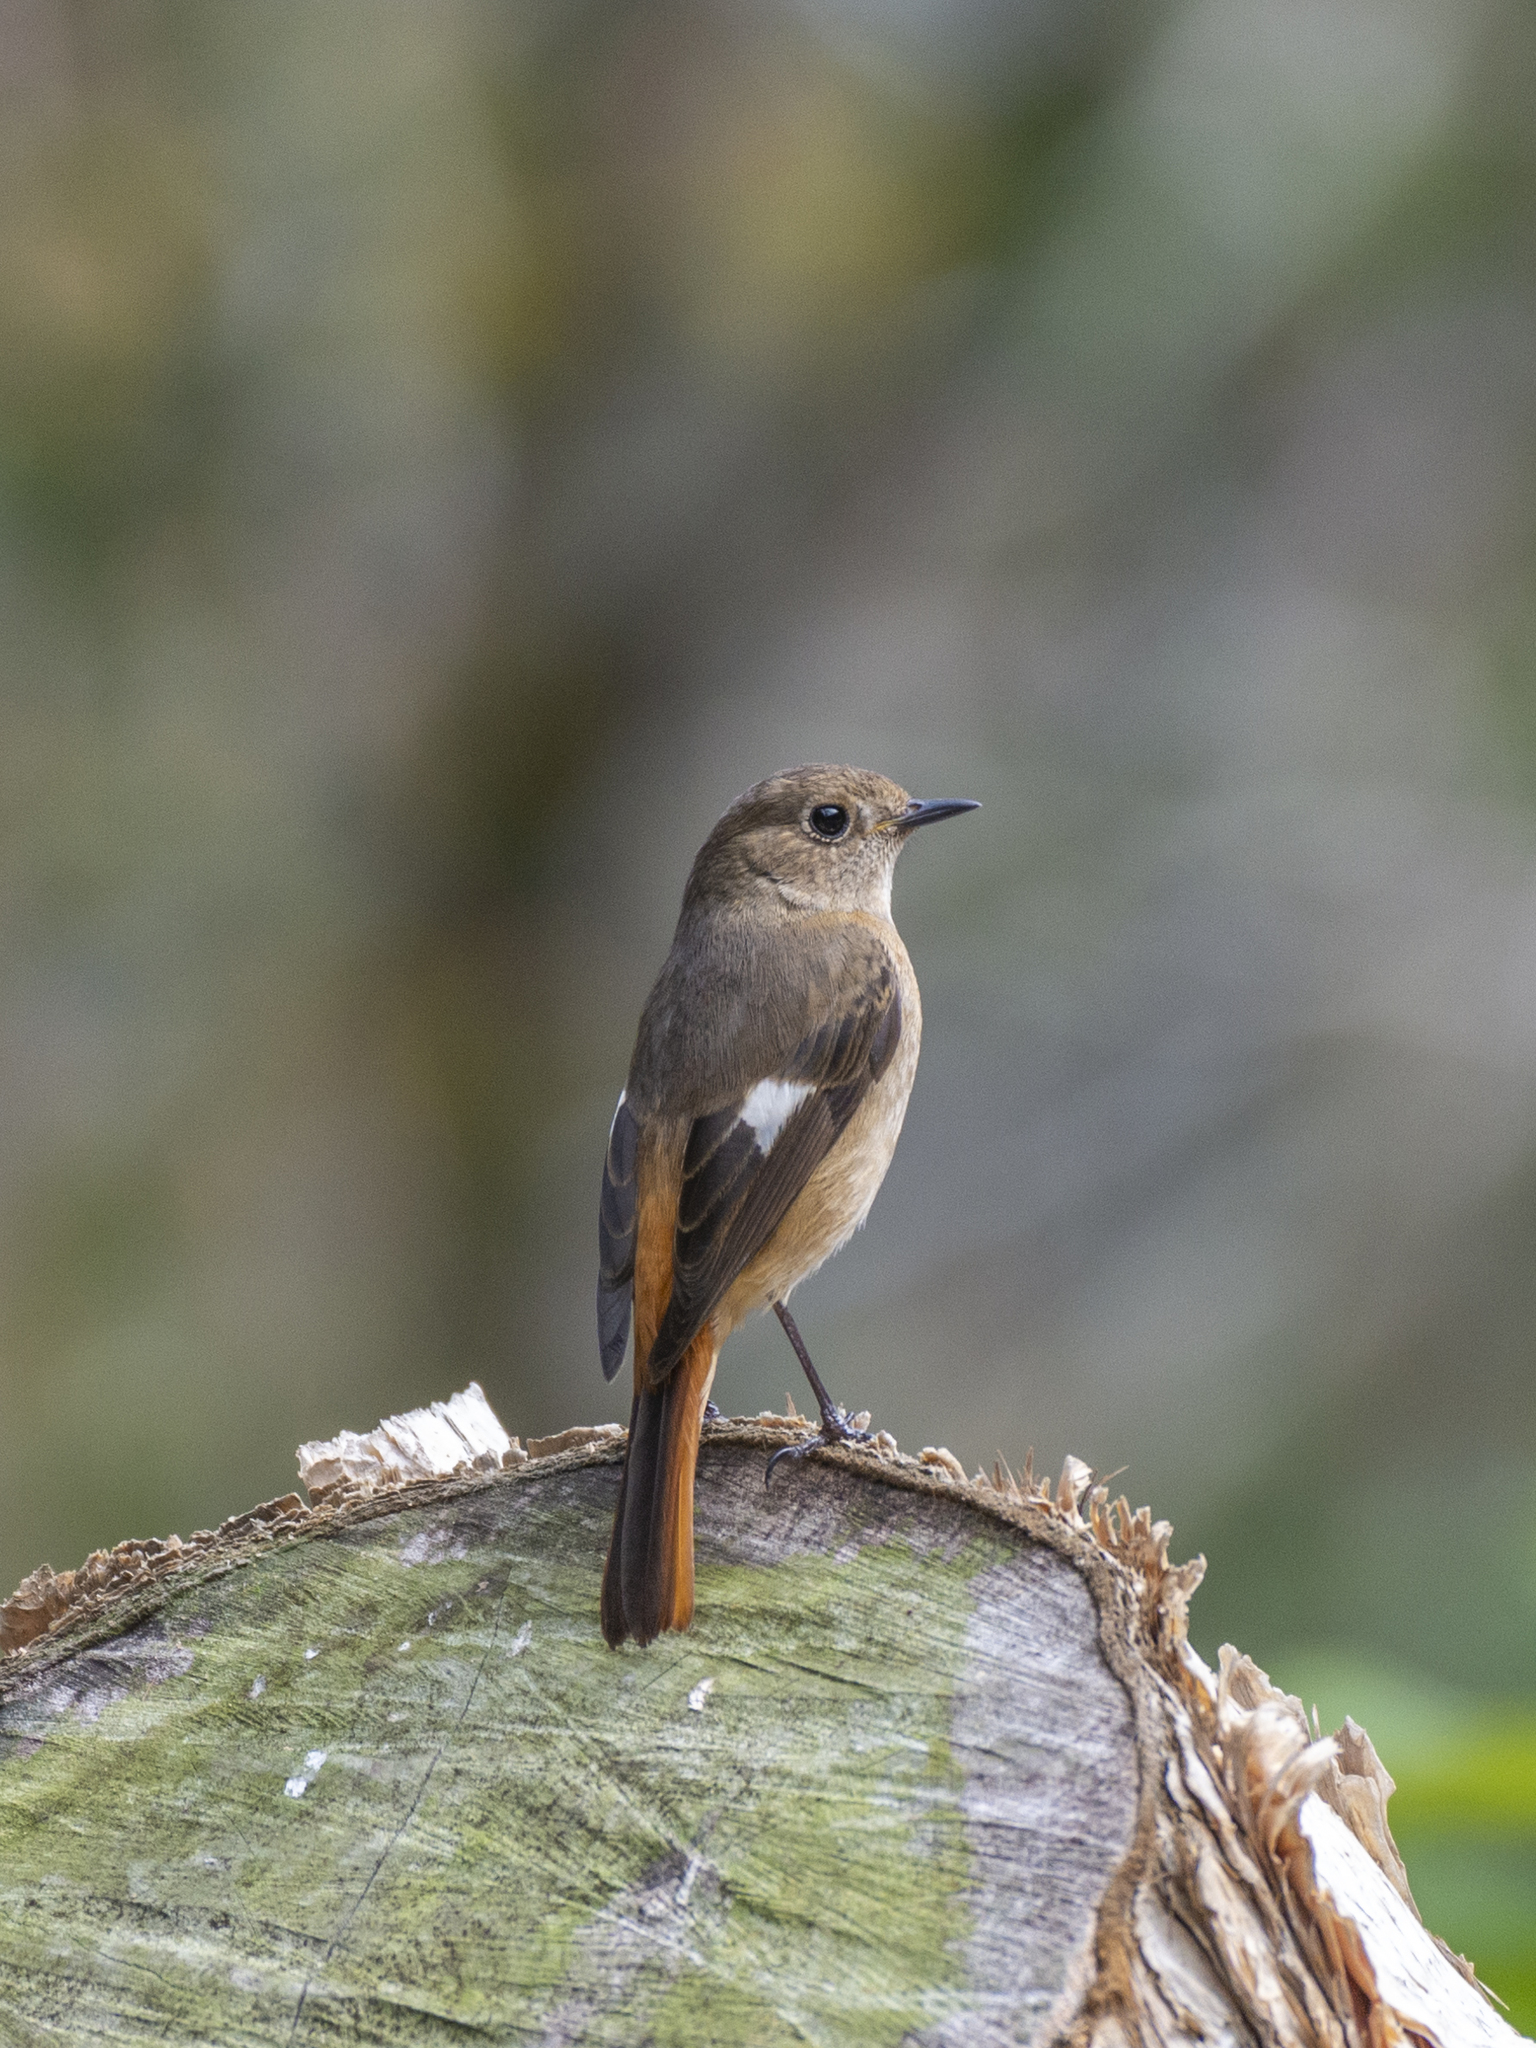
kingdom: Animalia
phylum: Chordata
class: Aves
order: Passeriformes
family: Muscicapidae
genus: Phoenicurus
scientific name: Phoenicurus auroreus
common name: Daurian redstart
